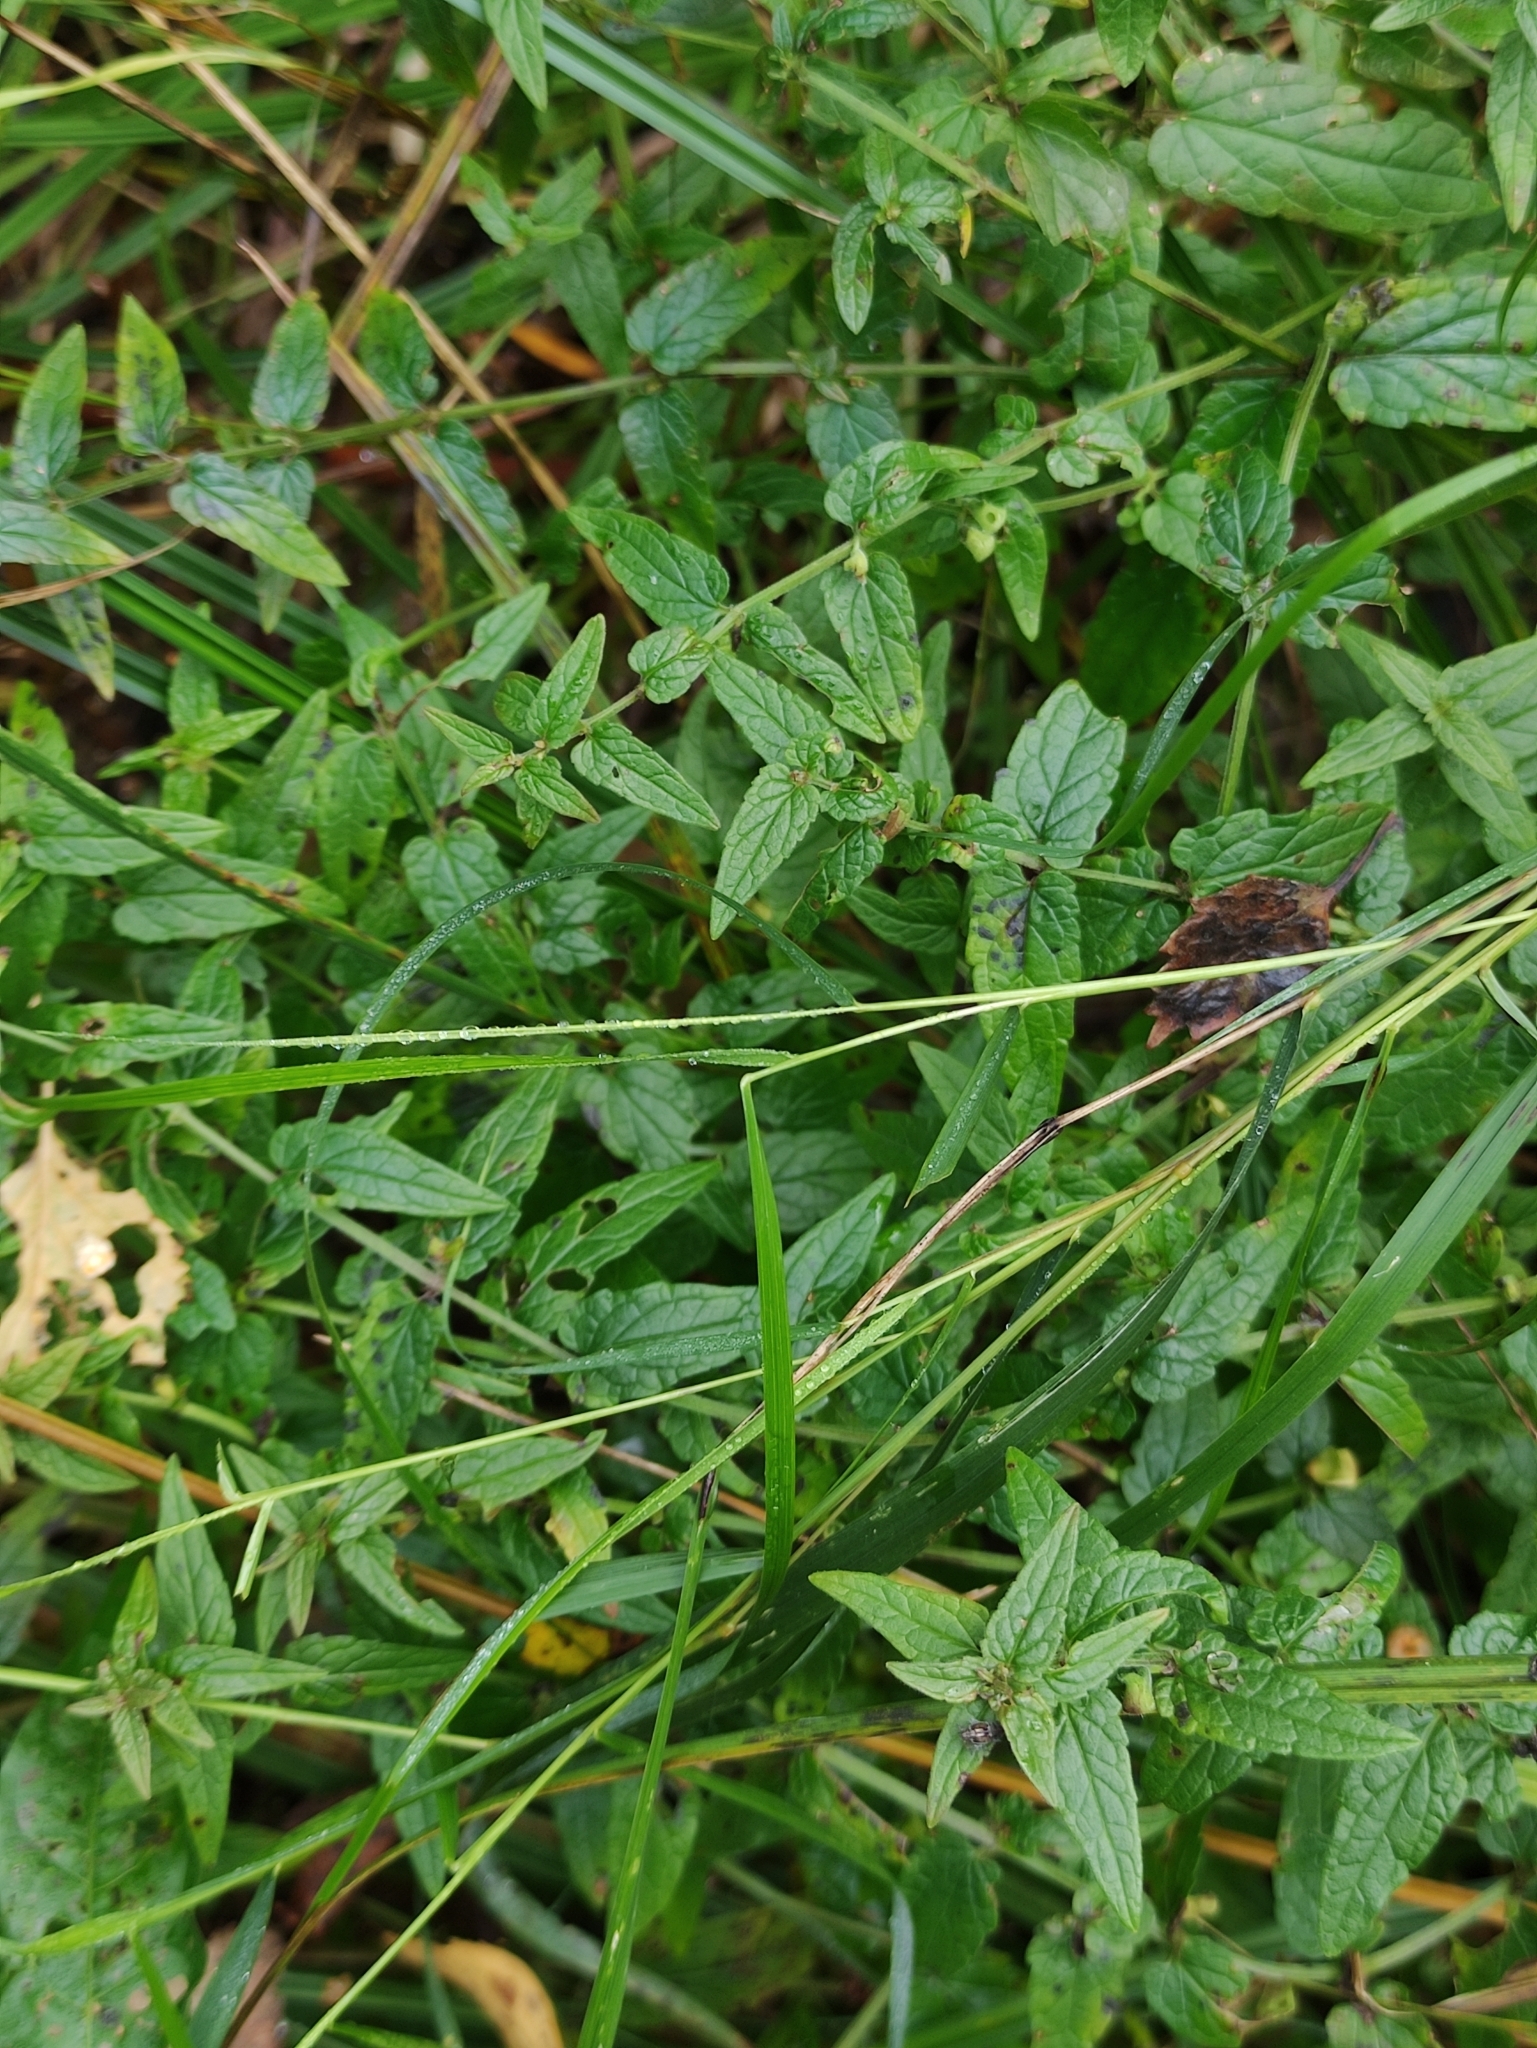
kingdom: Plantae
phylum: Tracheophyta
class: Magnoliopsida
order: Lamiales
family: Lamiaceae
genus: Scutellaria
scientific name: Scutellaria galericulata
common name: Skullcap
